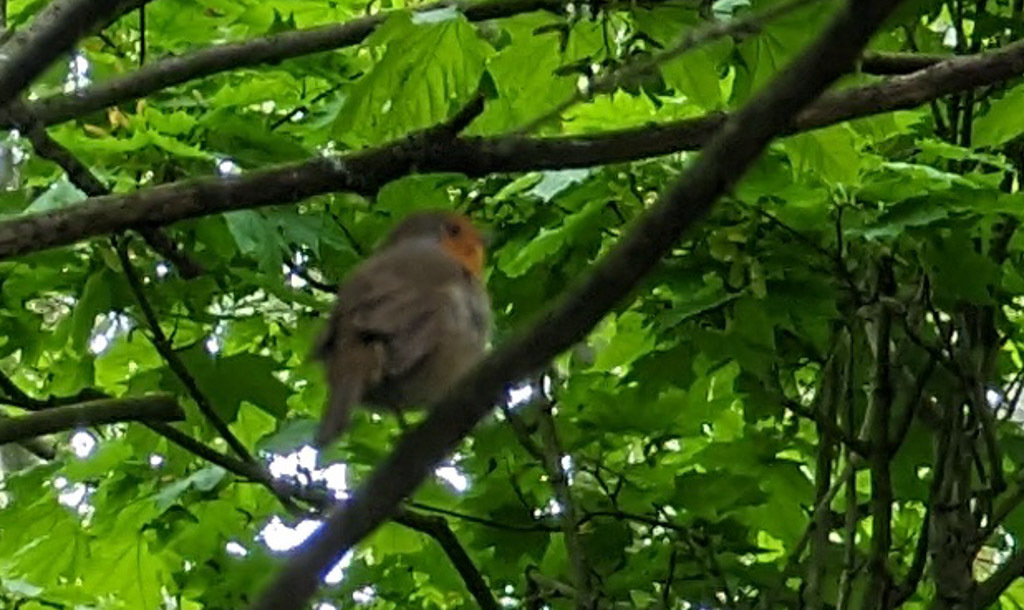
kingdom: Animalia
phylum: Chordata
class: Aves
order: Passeriformes
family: Muscicapidae
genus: Erithacus
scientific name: Erithacus rubecula
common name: European robin
